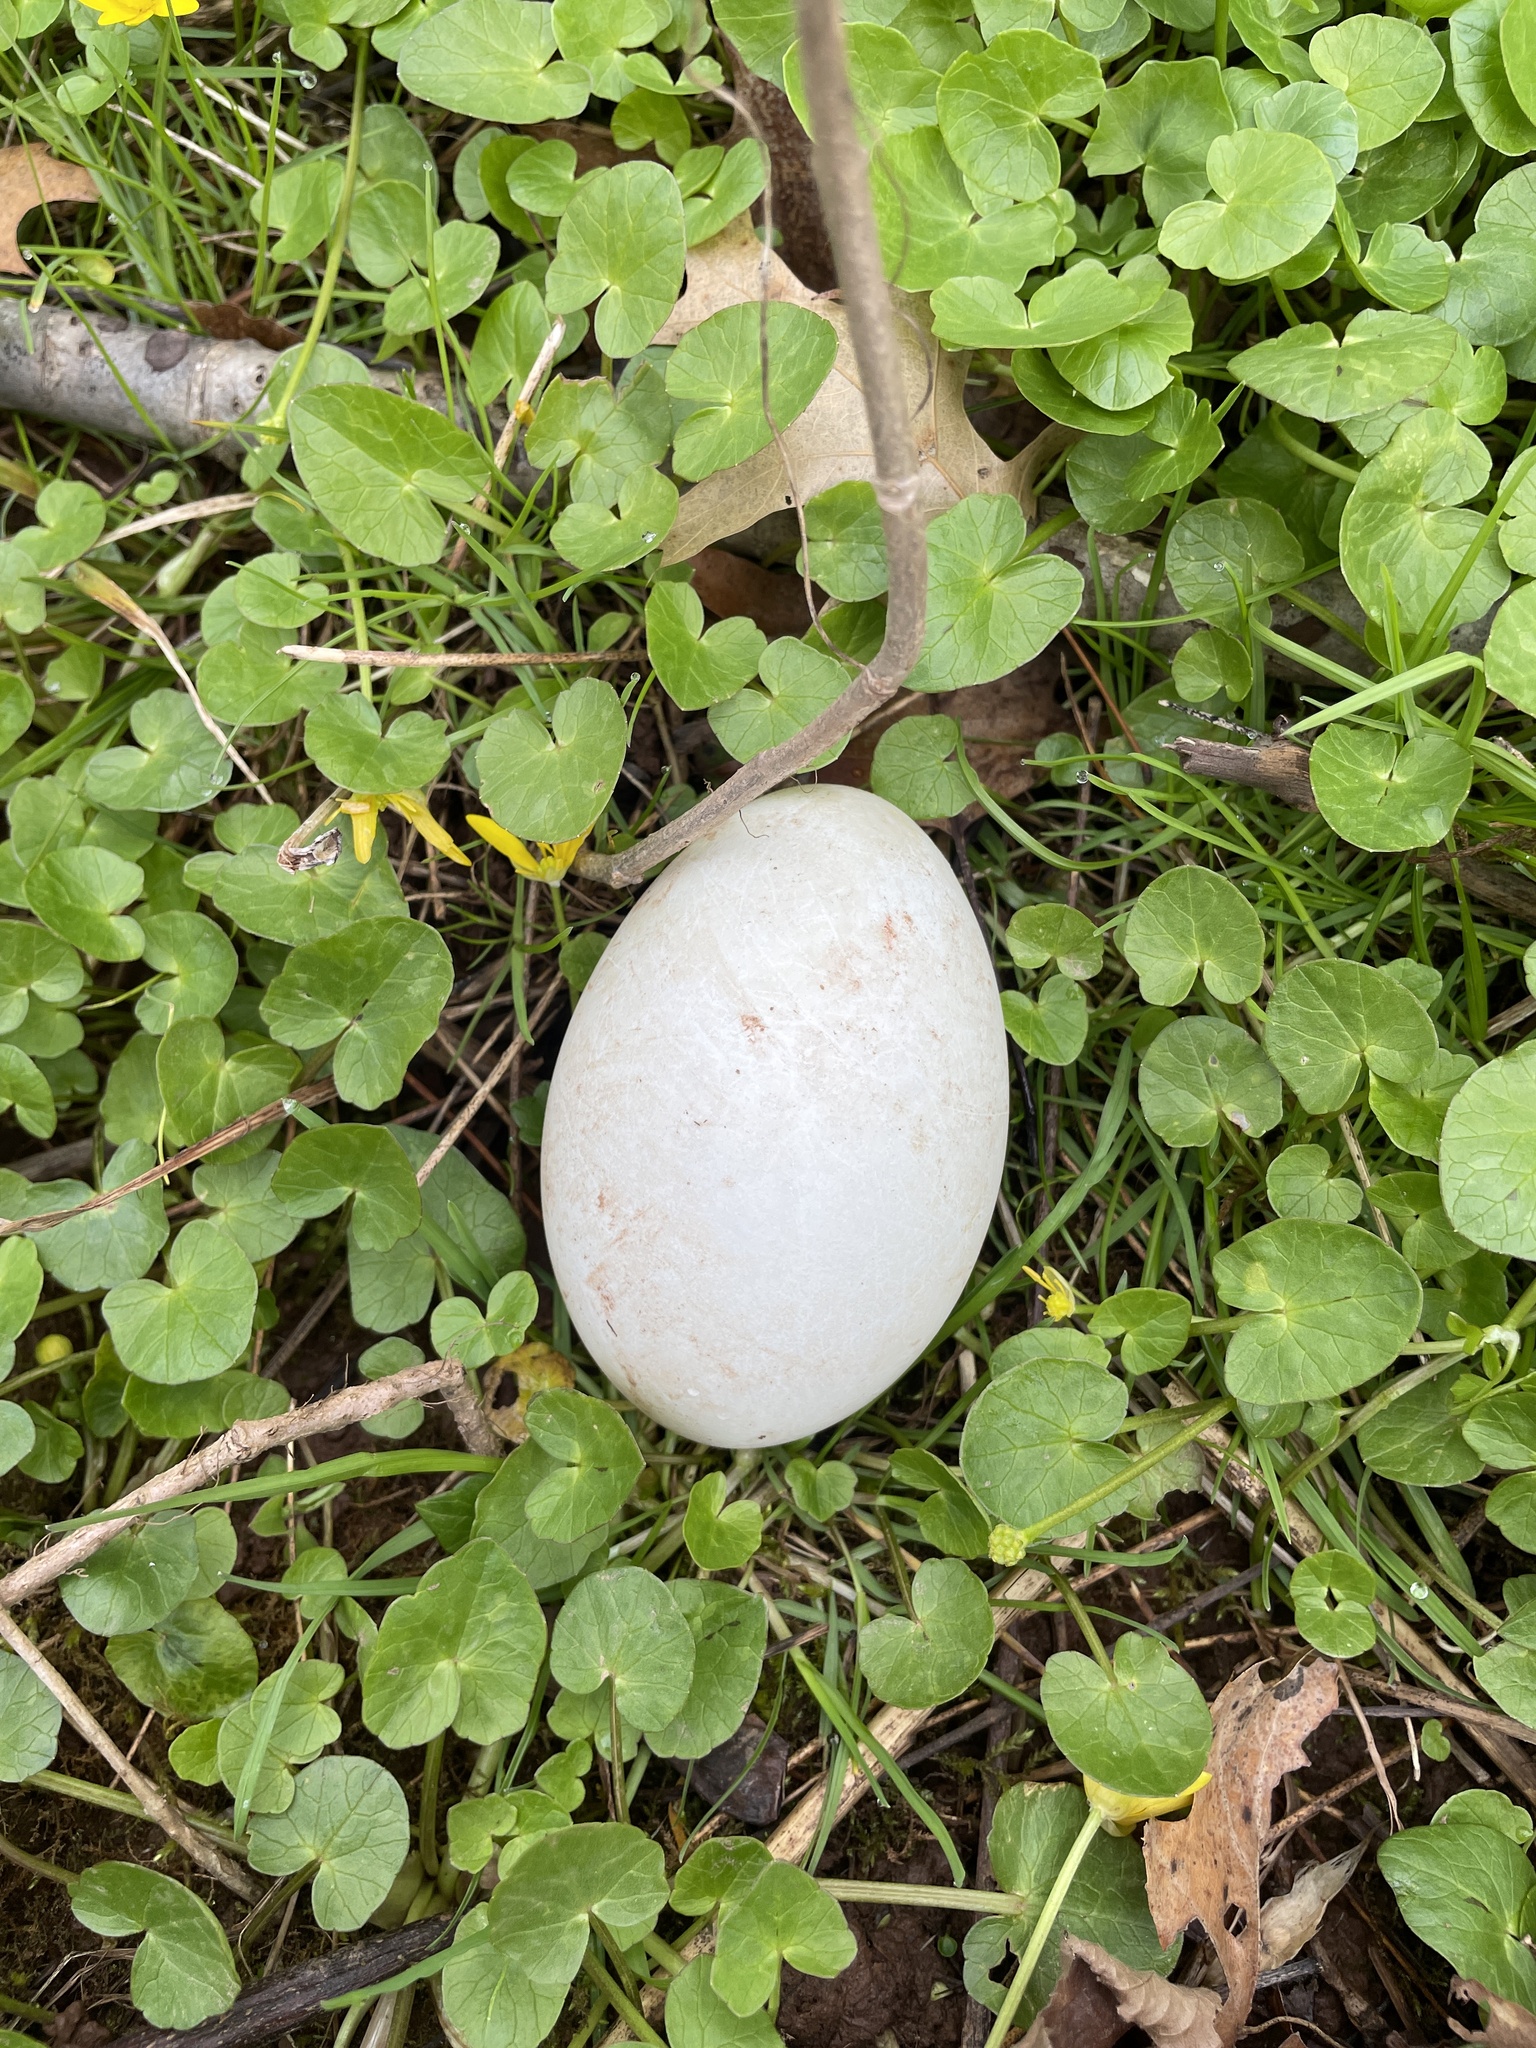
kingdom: Animalia
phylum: Chordata
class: Aves
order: Galliformes
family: Phasianidae
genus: Meleagris
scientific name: Meleagris gallopavo
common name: Wild turkey
